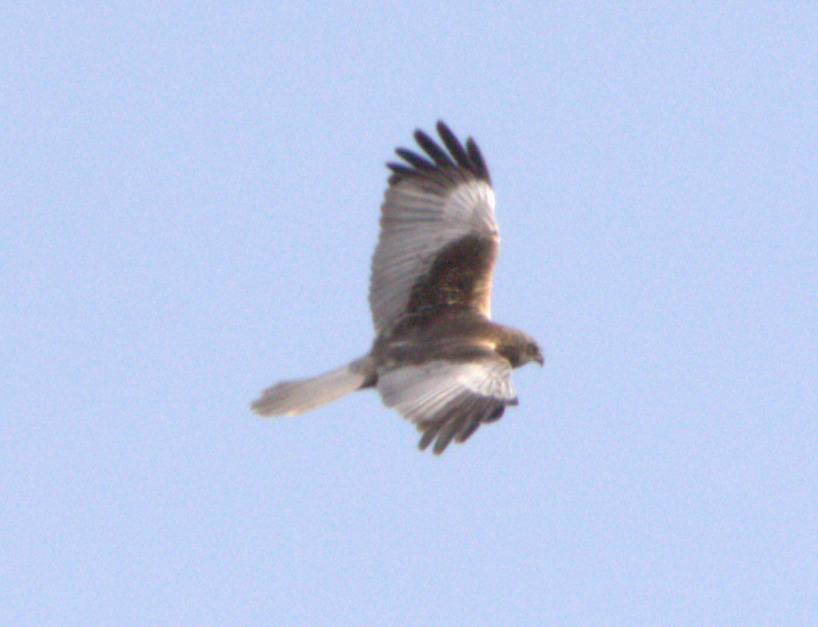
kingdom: Animalia
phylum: Chordata
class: Aves
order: Accipitriformes
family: Accipitridae
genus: Circus
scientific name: Circus aeruginosus
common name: Western marsh harrier
